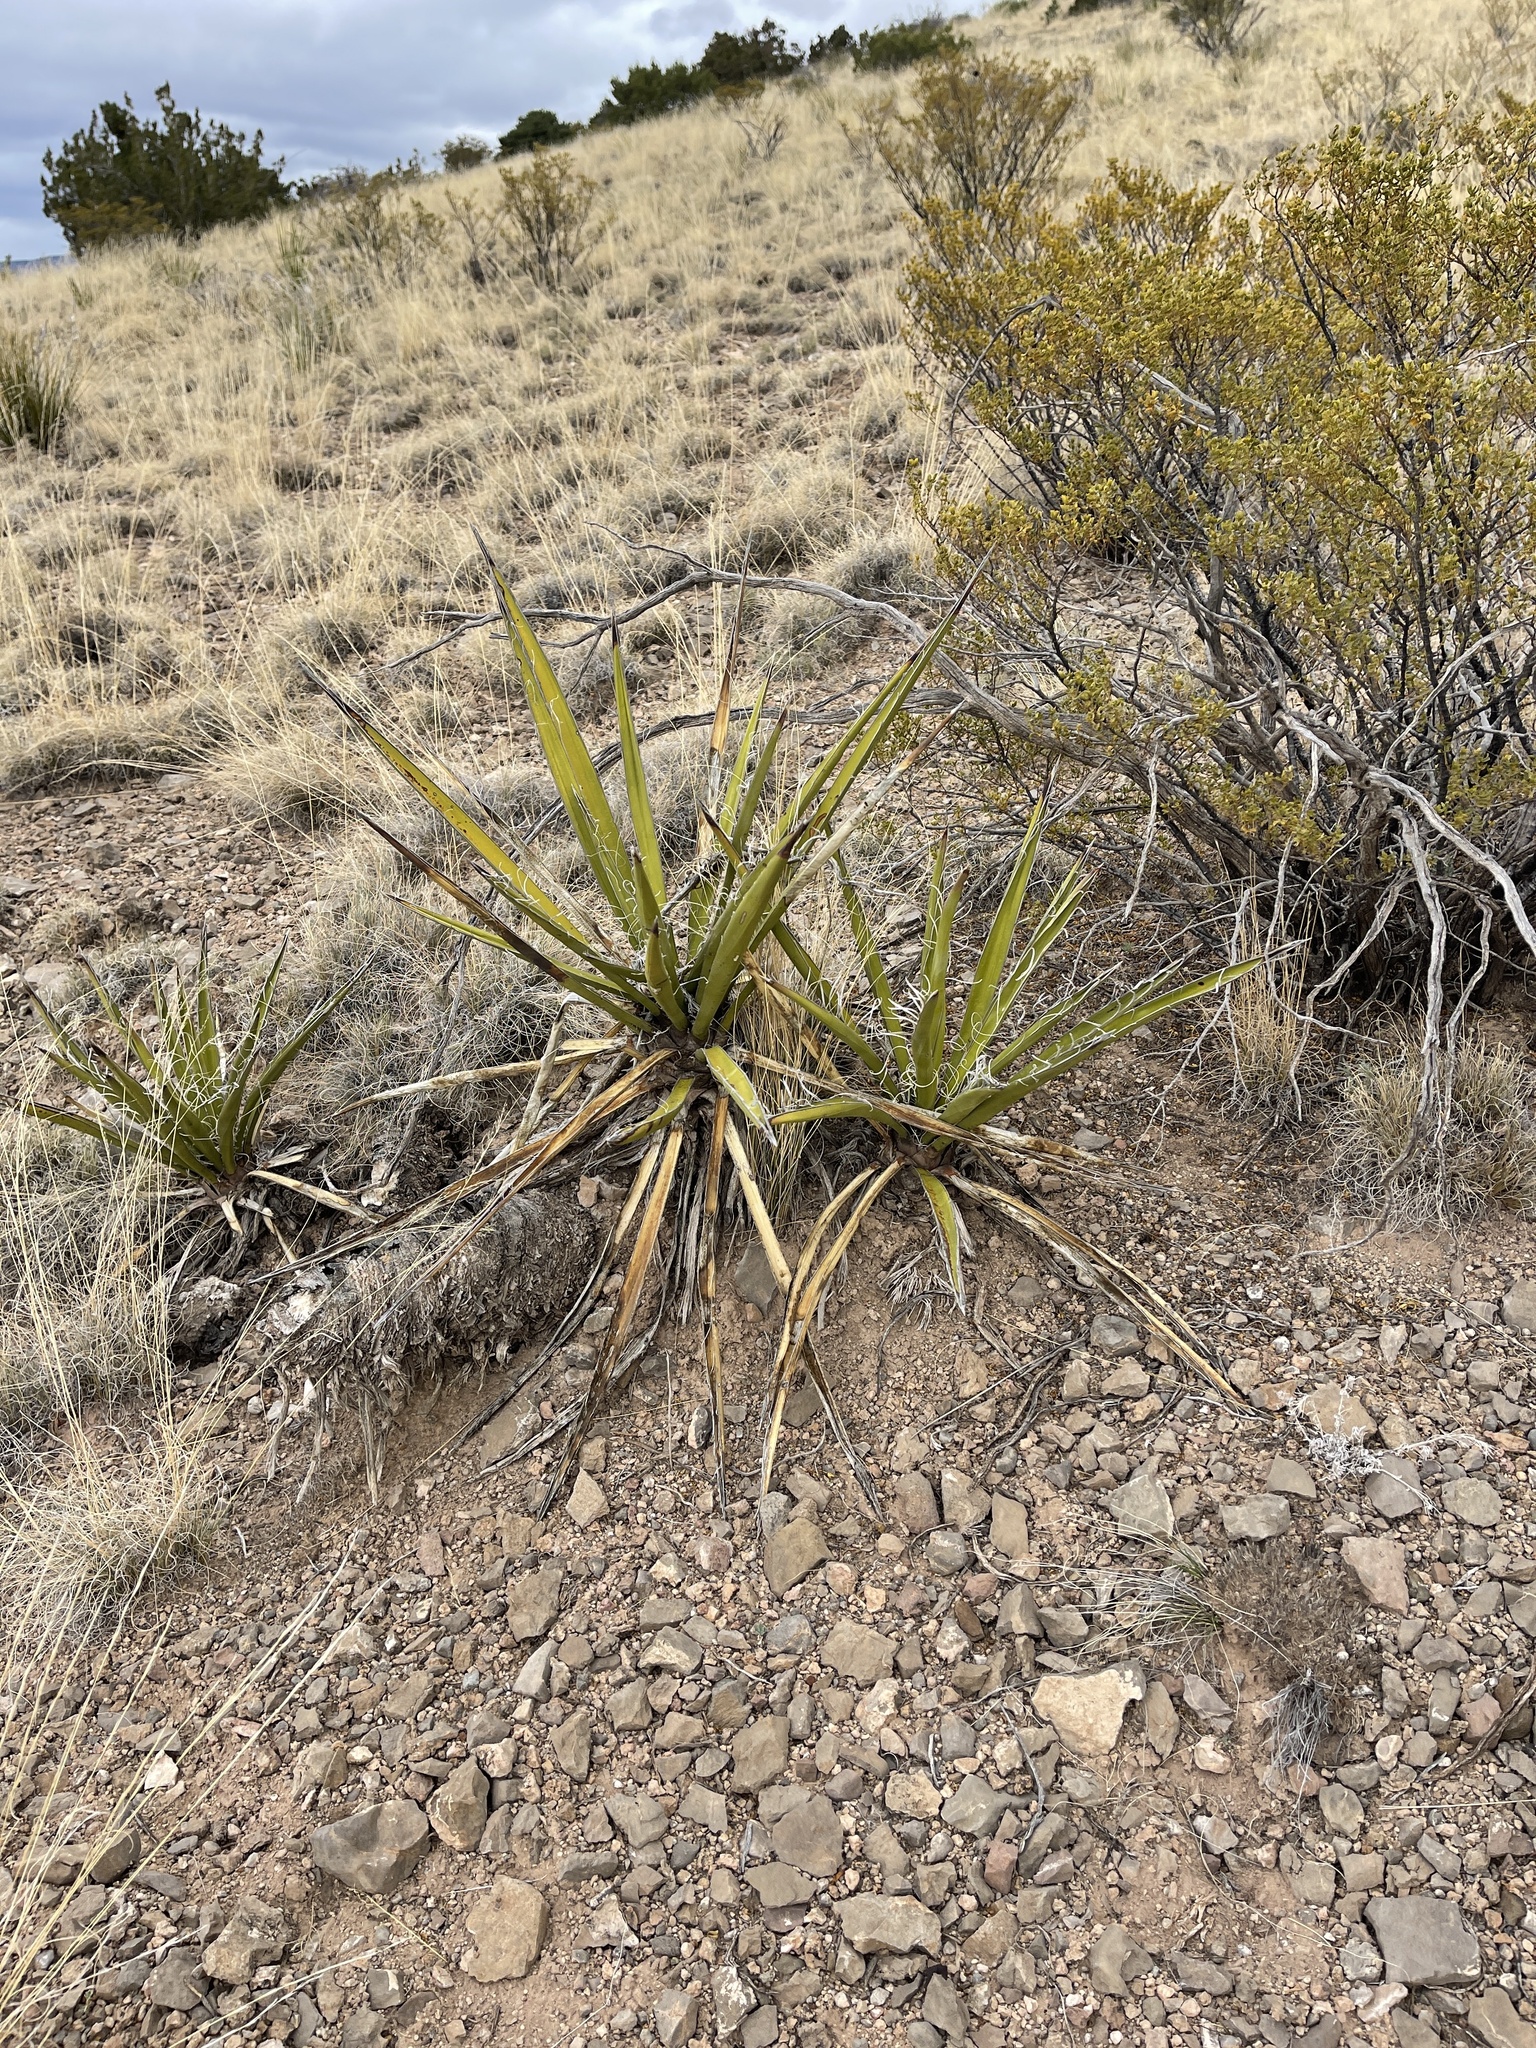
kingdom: Plantae
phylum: Tracheophyta
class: Liliopsida
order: Asparagales
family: Asparagaceae
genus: Yucca
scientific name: Yucca baccata
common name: Banana yucca
